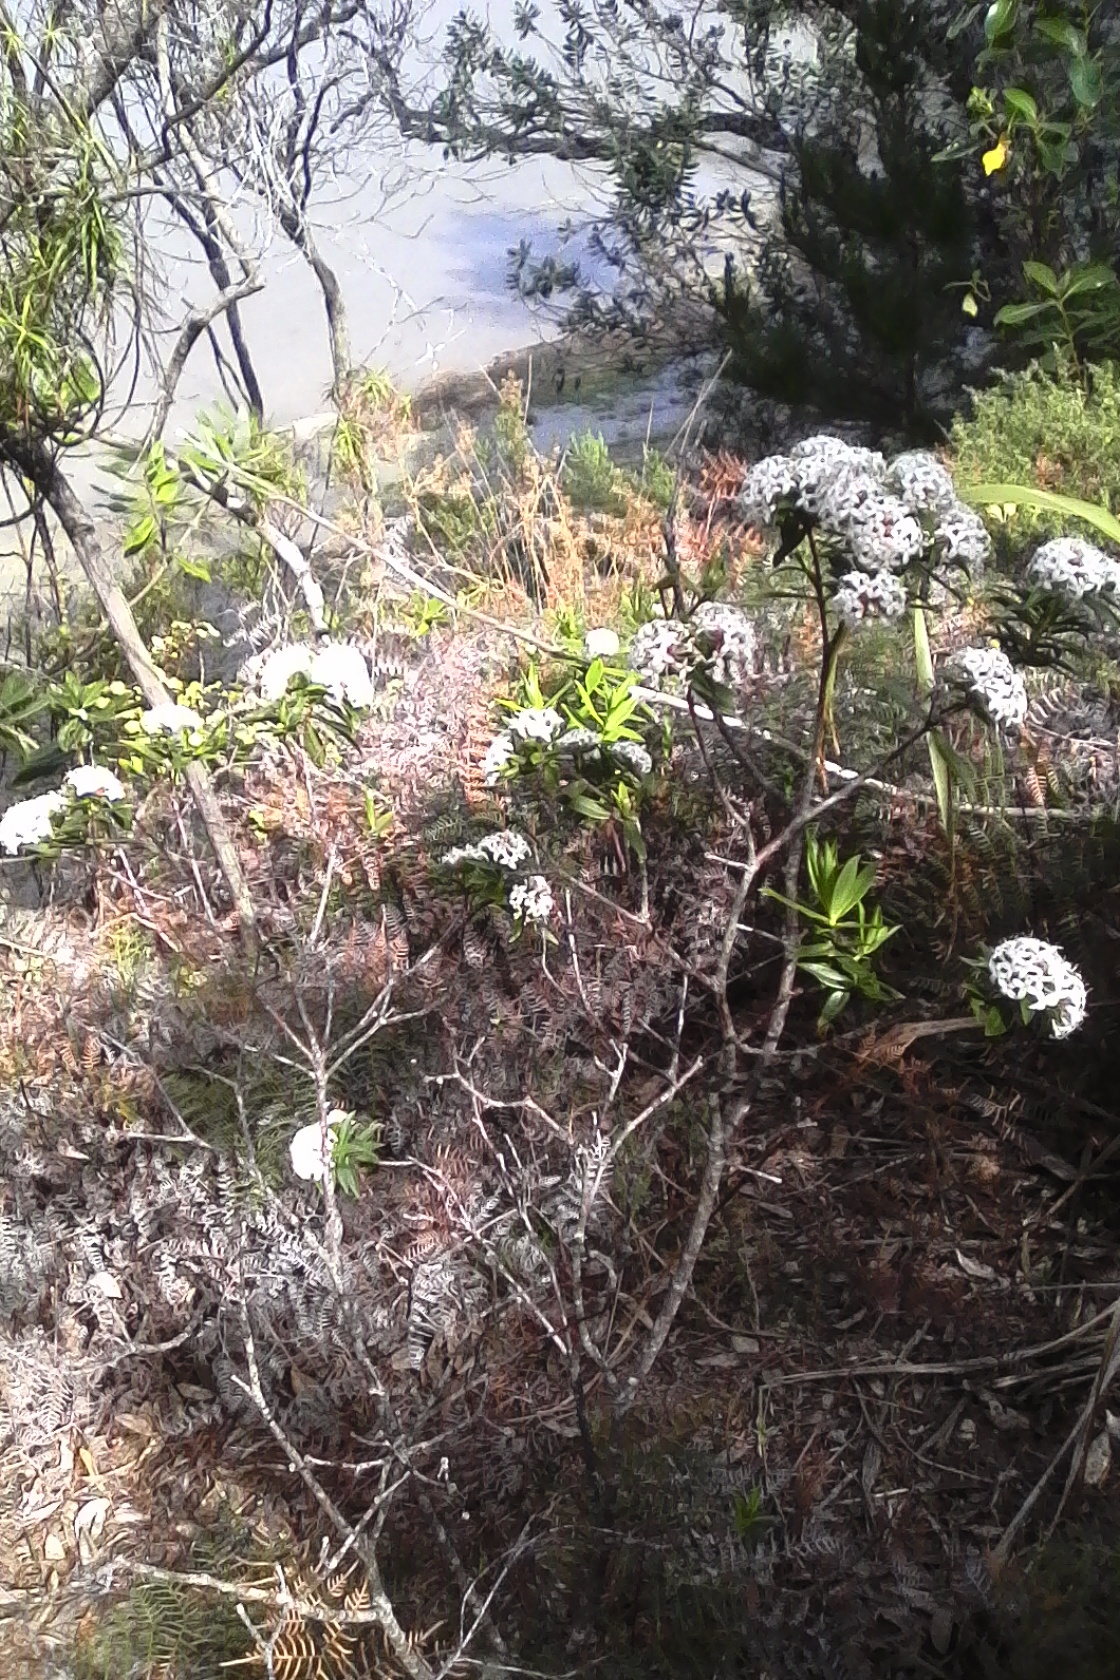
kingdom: Plantae
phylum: Tracheophyta
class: Magnoliopsida
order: Malvales
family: Thymelaeaceae
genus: Pimelea
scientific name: Pimelea longifolia
